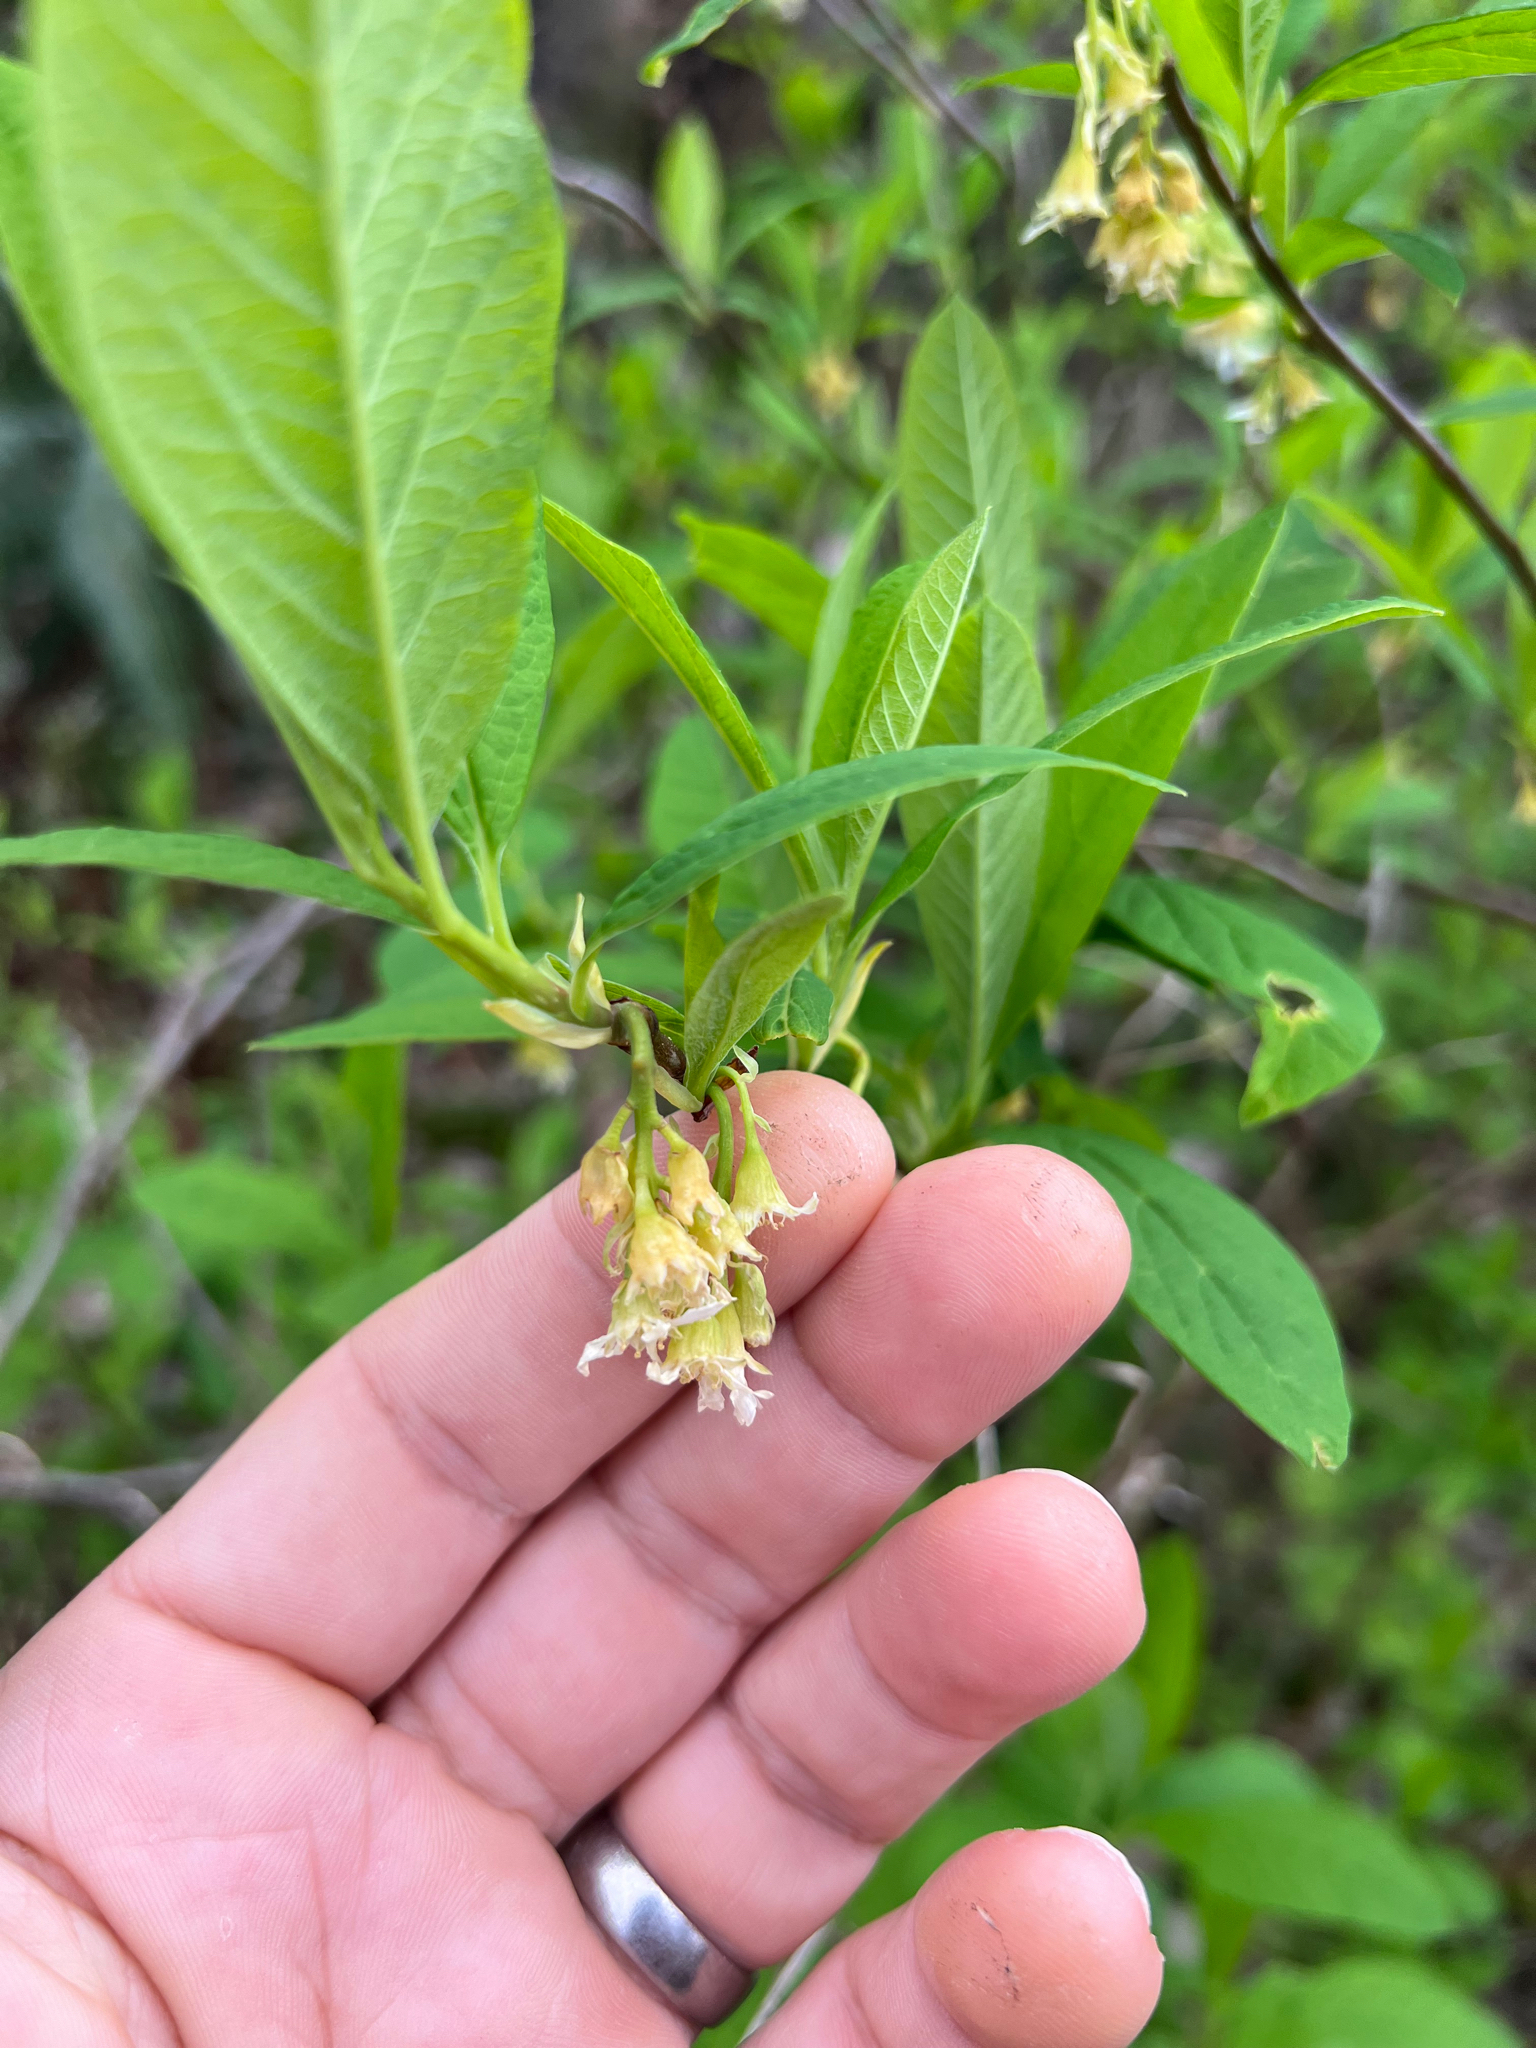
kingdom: Plantae
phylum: Tracheophyta
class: Magnoliopsida
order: Rosales
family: Rosaceae
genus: Oemleria
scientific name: Oemleria cerasiformis
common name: Osoberry
